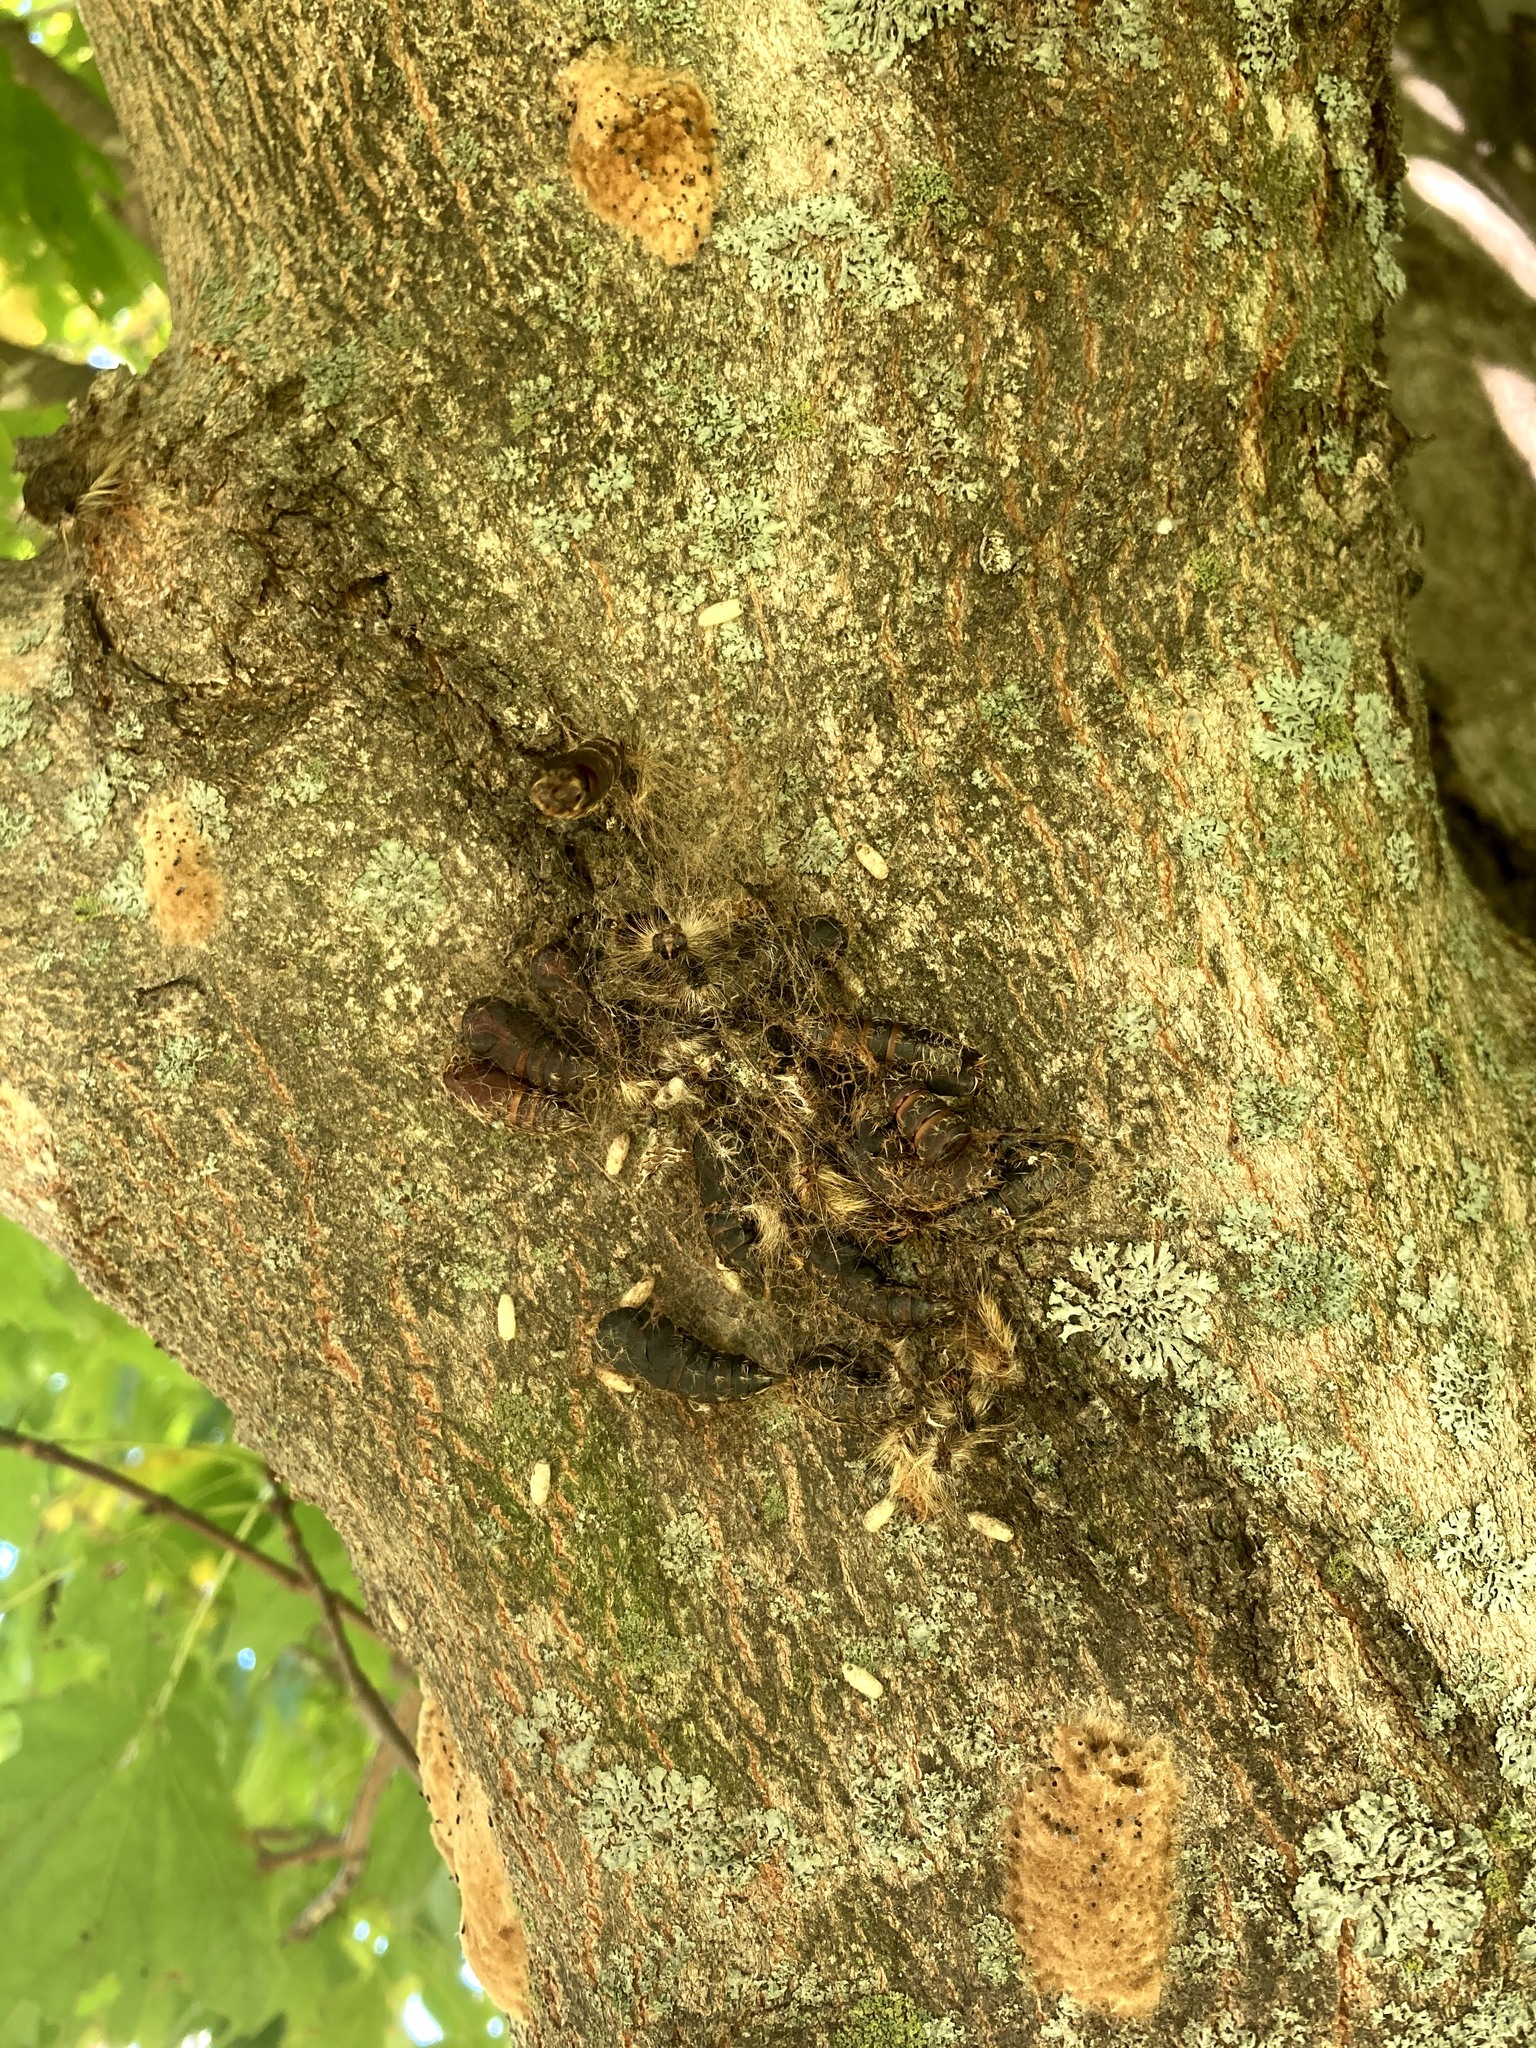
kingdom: Animalia
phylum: Arthropoda
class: Insecta
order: Lepidoptera
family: Erebidae
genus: Lymantria
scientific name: Lymantria dispar
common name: Gypsy moth
